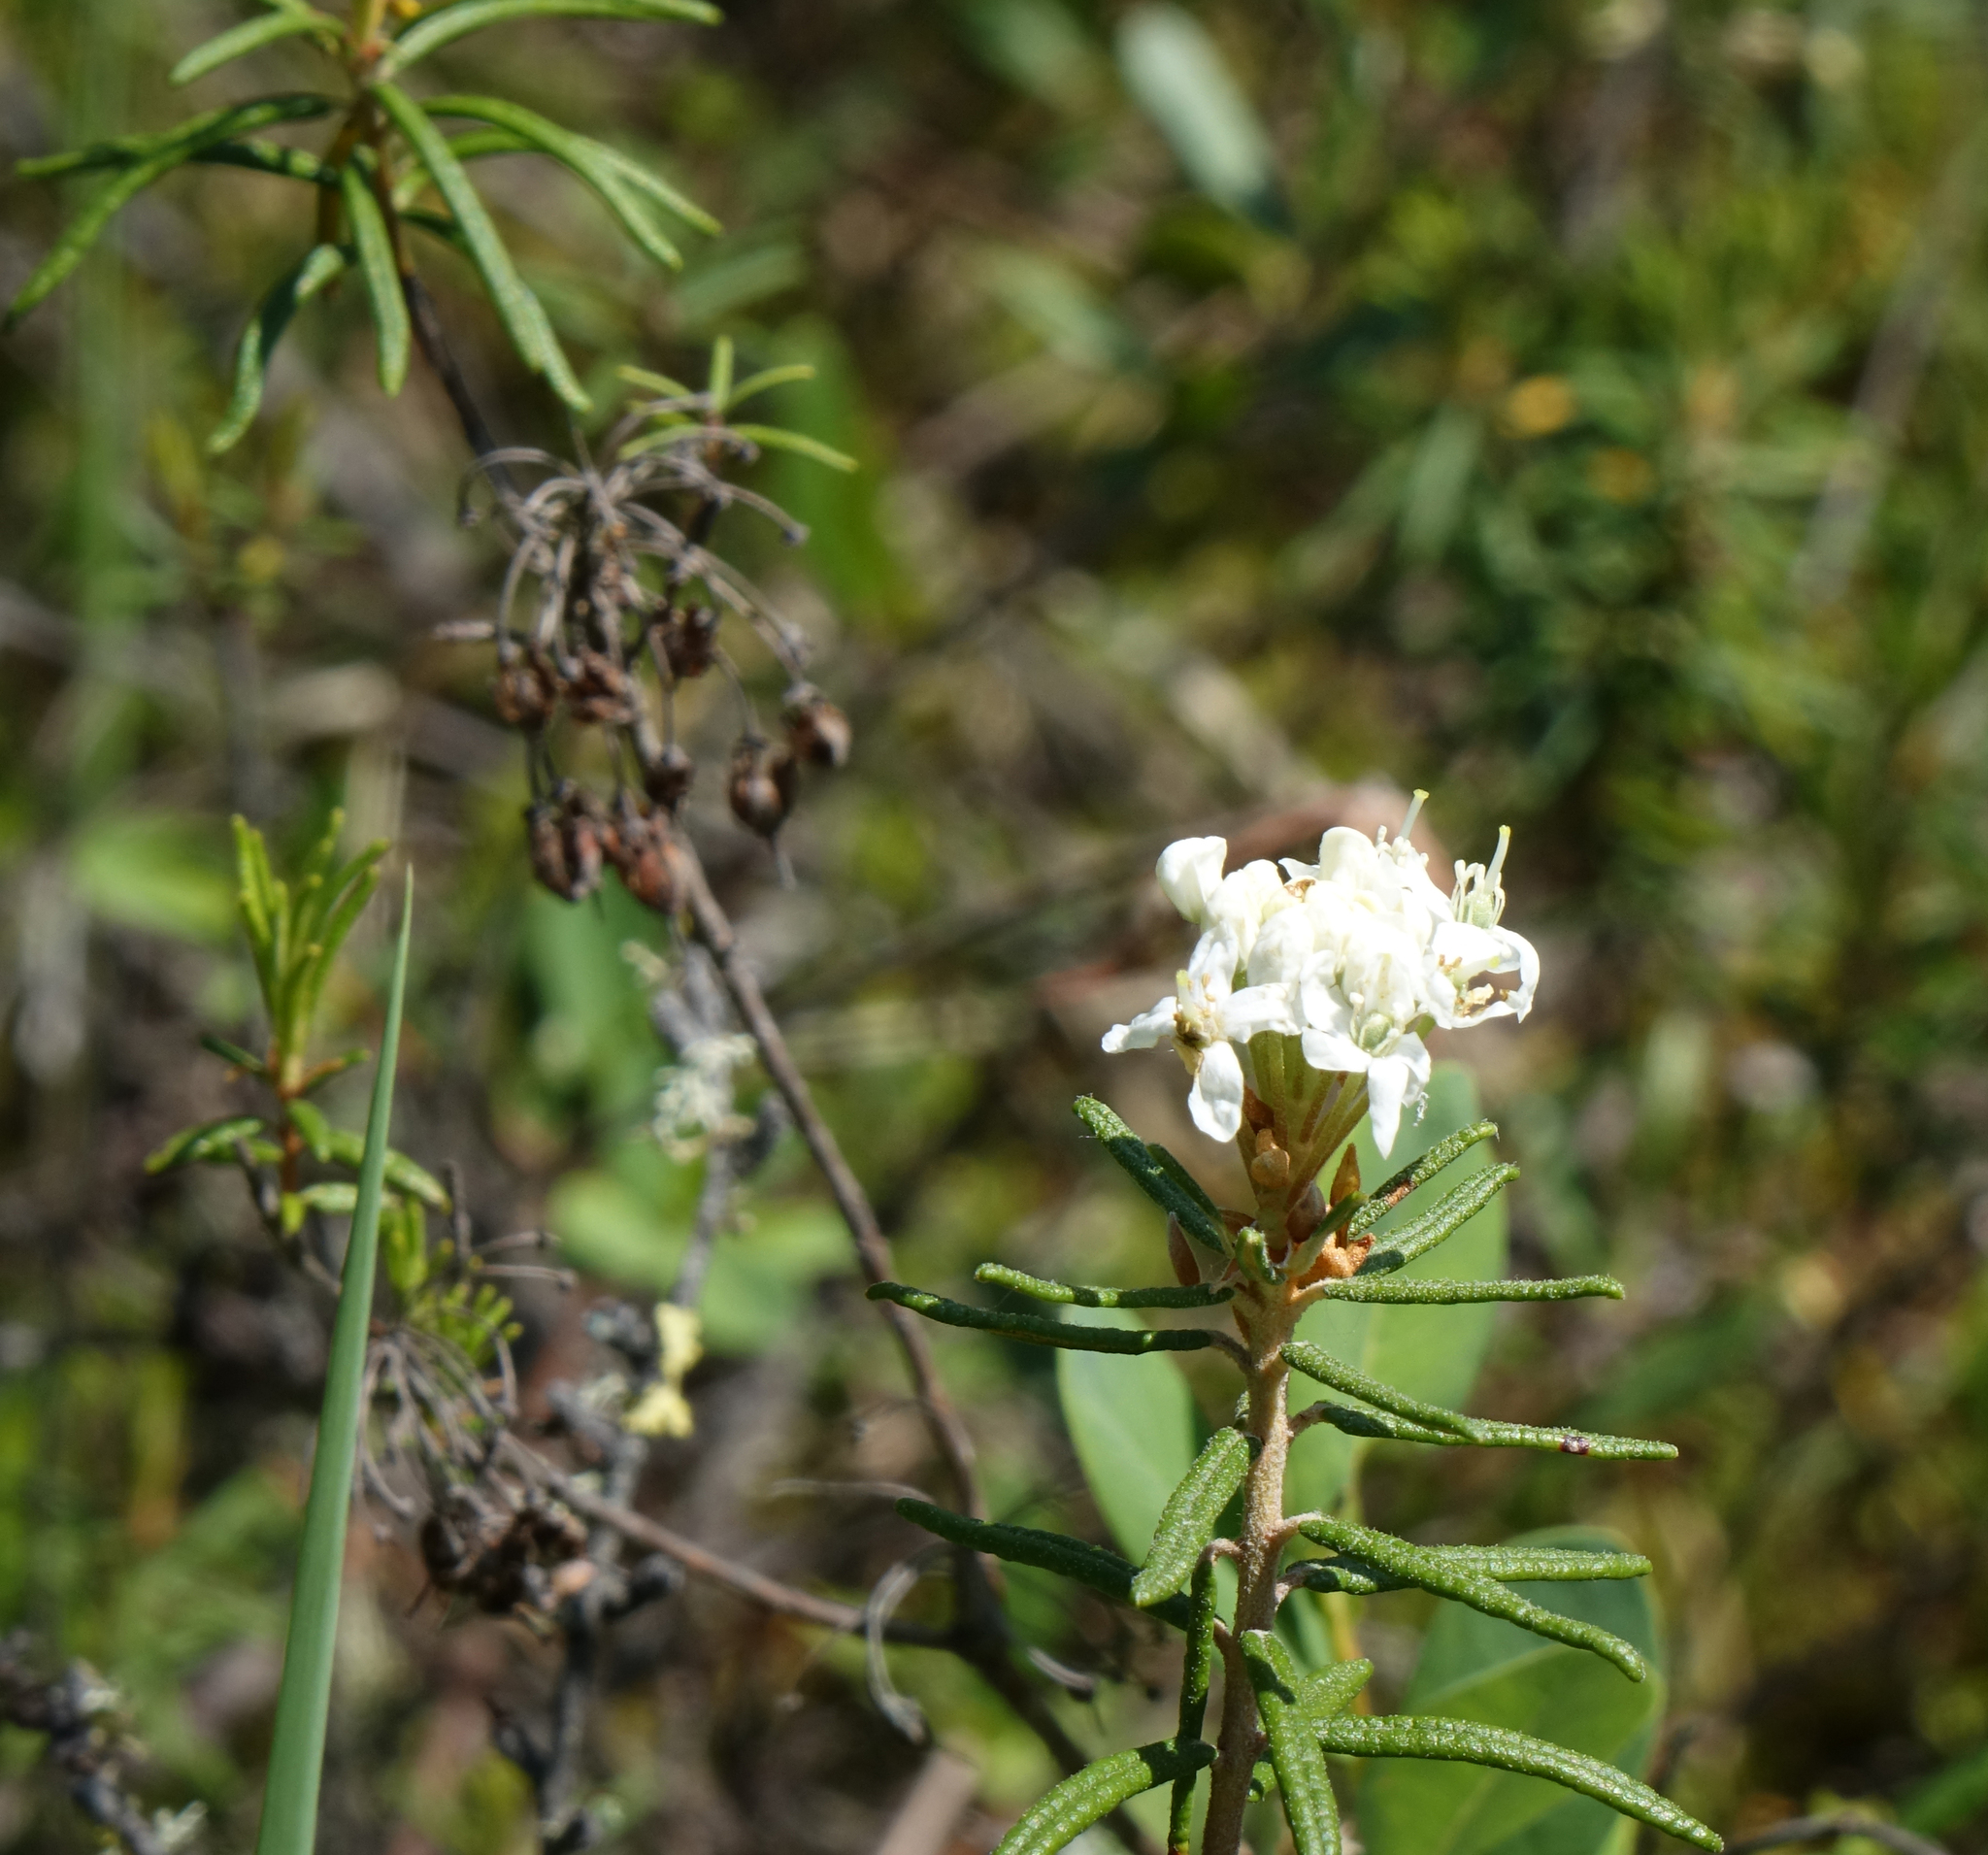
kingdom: Plantae
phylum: Tracheophyta
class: Magnoliopsida
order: Ericales
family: Ericaceae
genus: Rhododendron
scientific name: Rhododendron tomentosum
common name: Marsh labrador tea
